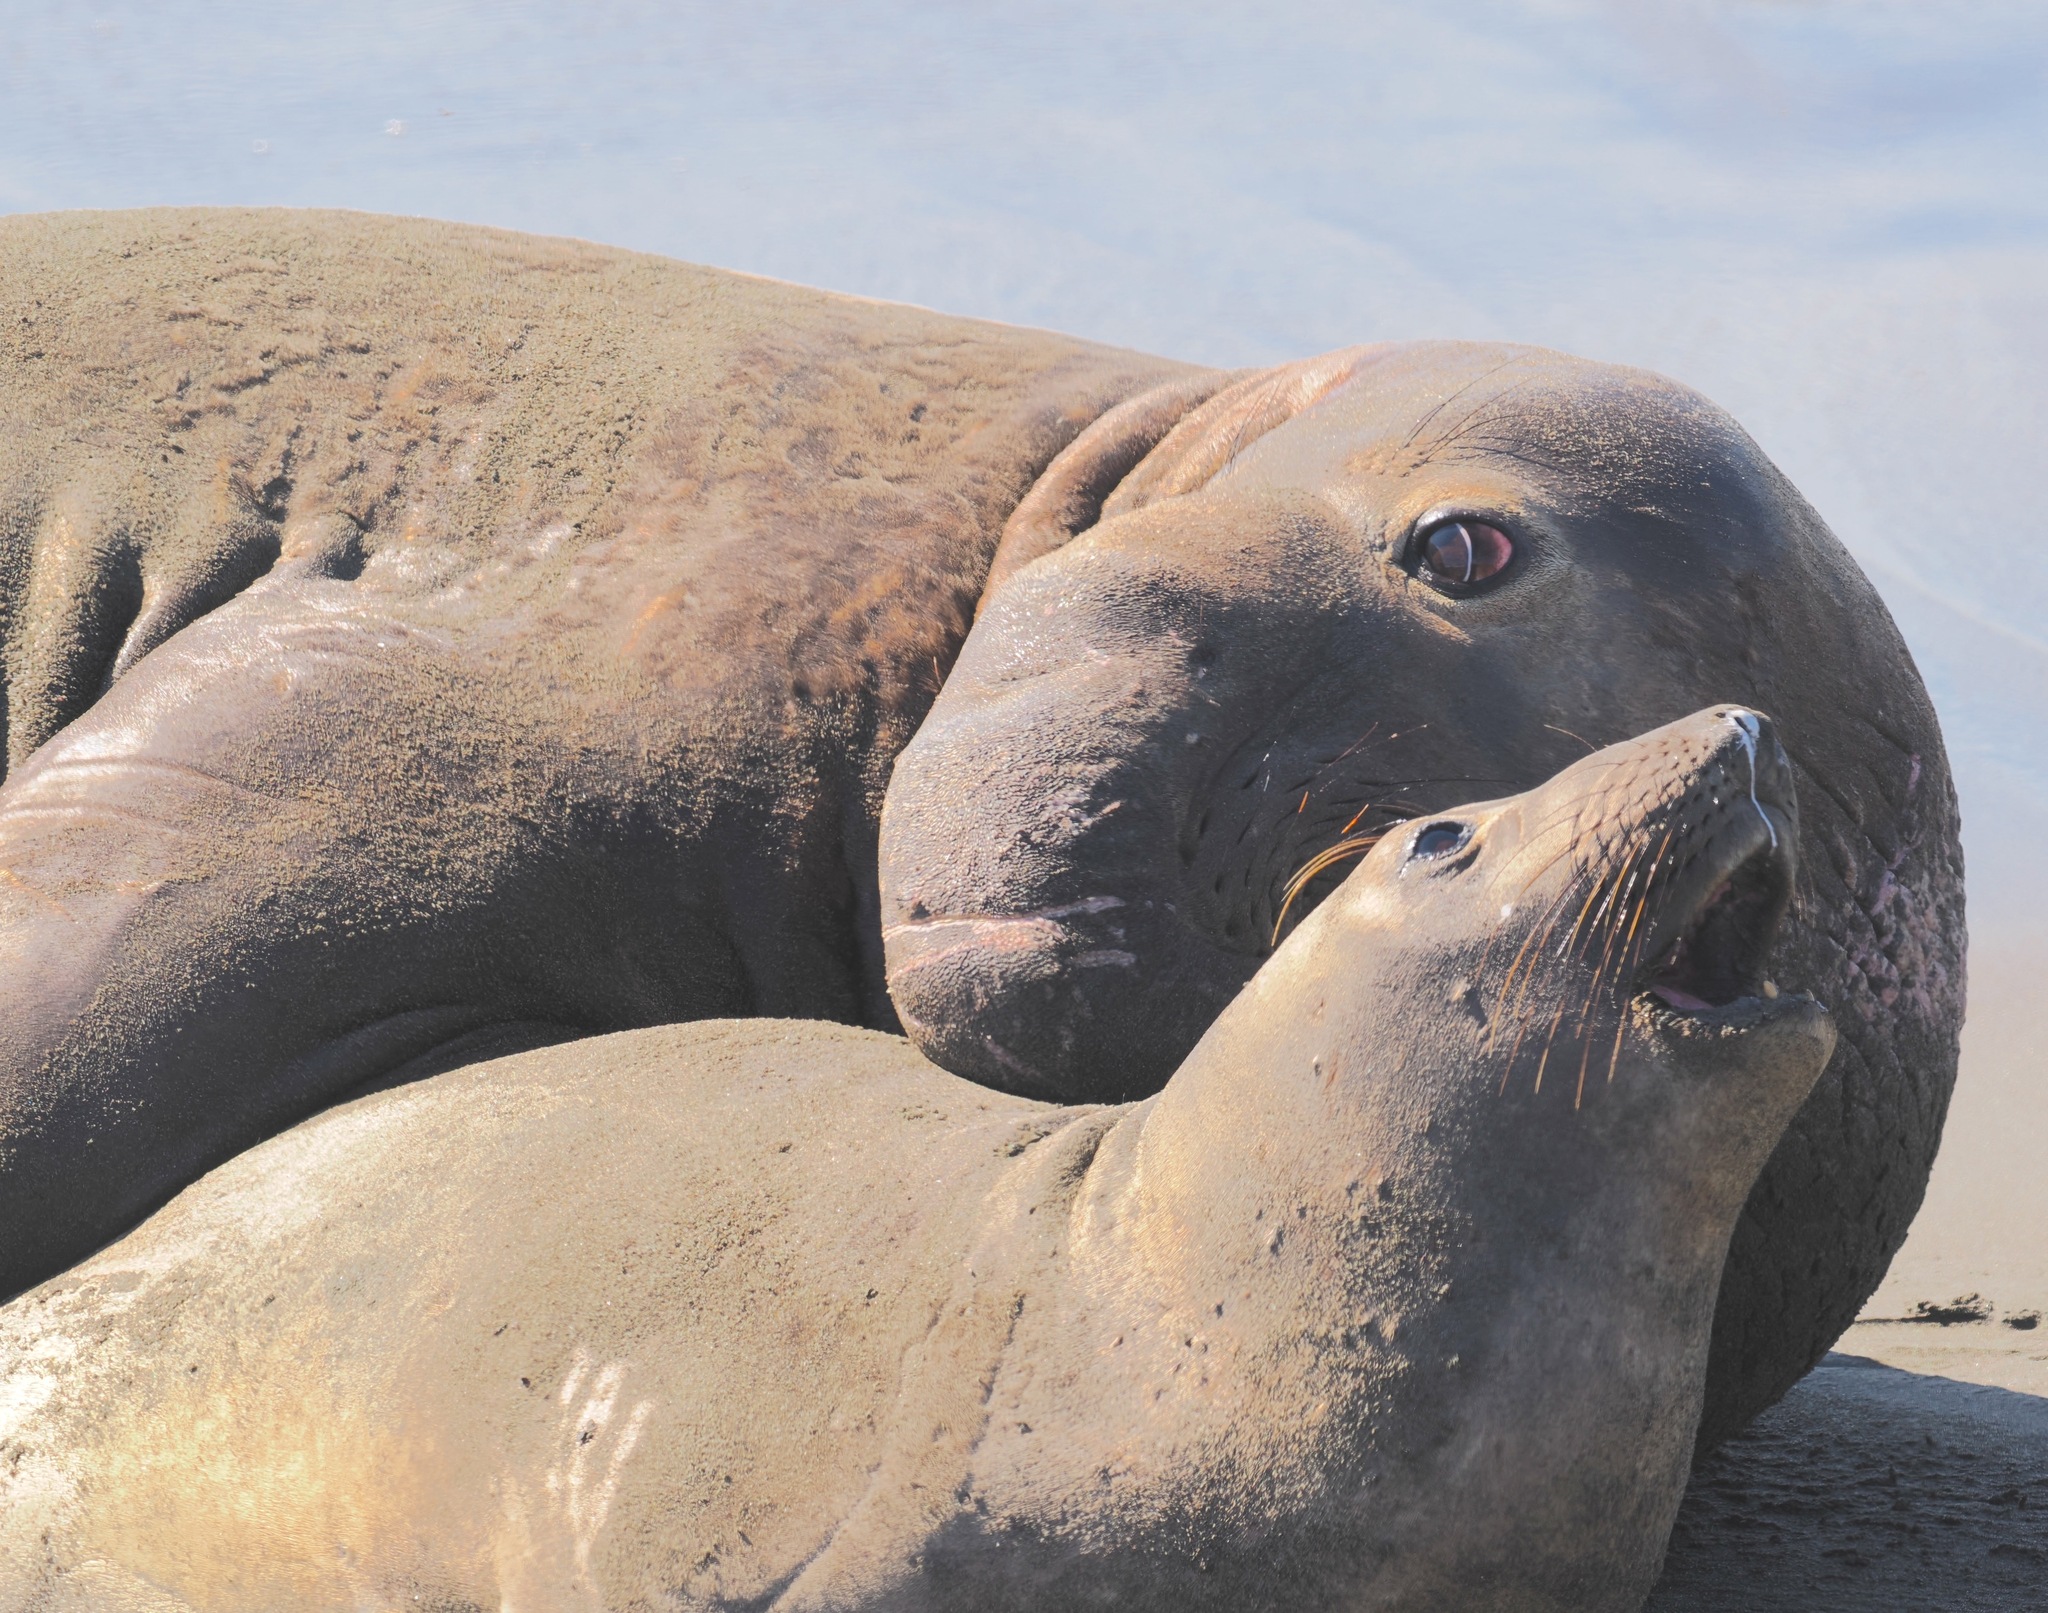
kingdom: Animalia
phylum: Chordata
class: Mammalia
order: Carnivora
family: Phocidae
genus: Mirounga
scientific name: Mirounga angustirostris
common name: Northern elephant seal
